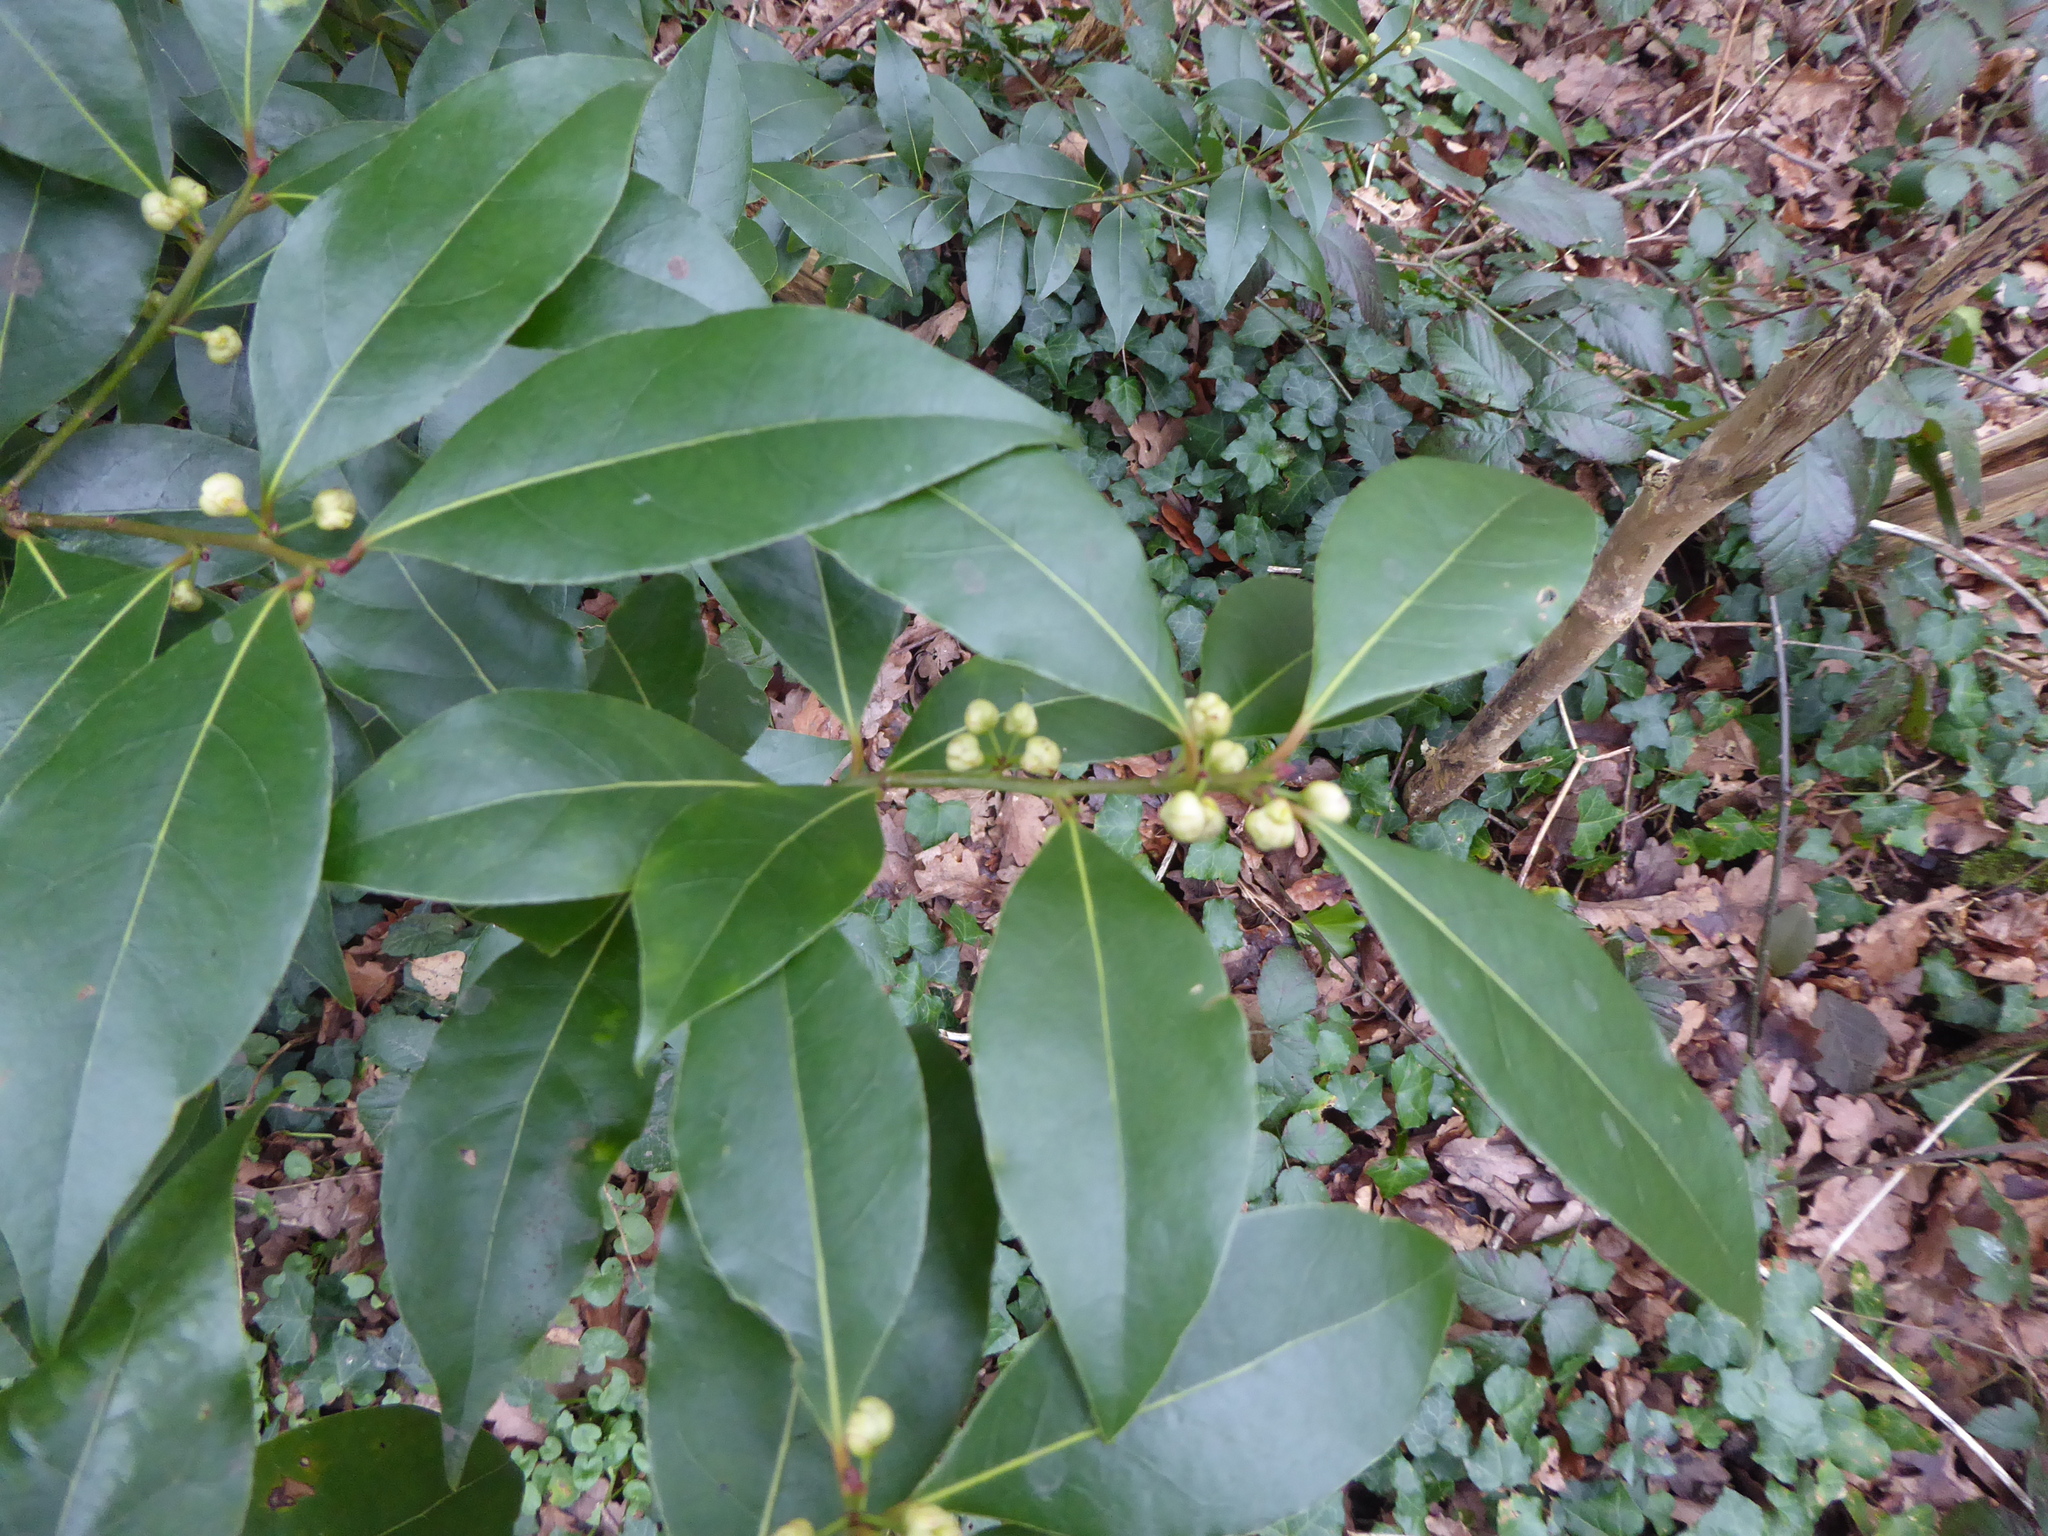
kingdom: Plantae
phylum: Tracheophyta
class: Magnoliopsida
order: Laurales
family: Lauraceae
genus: Laurus
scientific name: Laurus nobilis
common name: Bay
